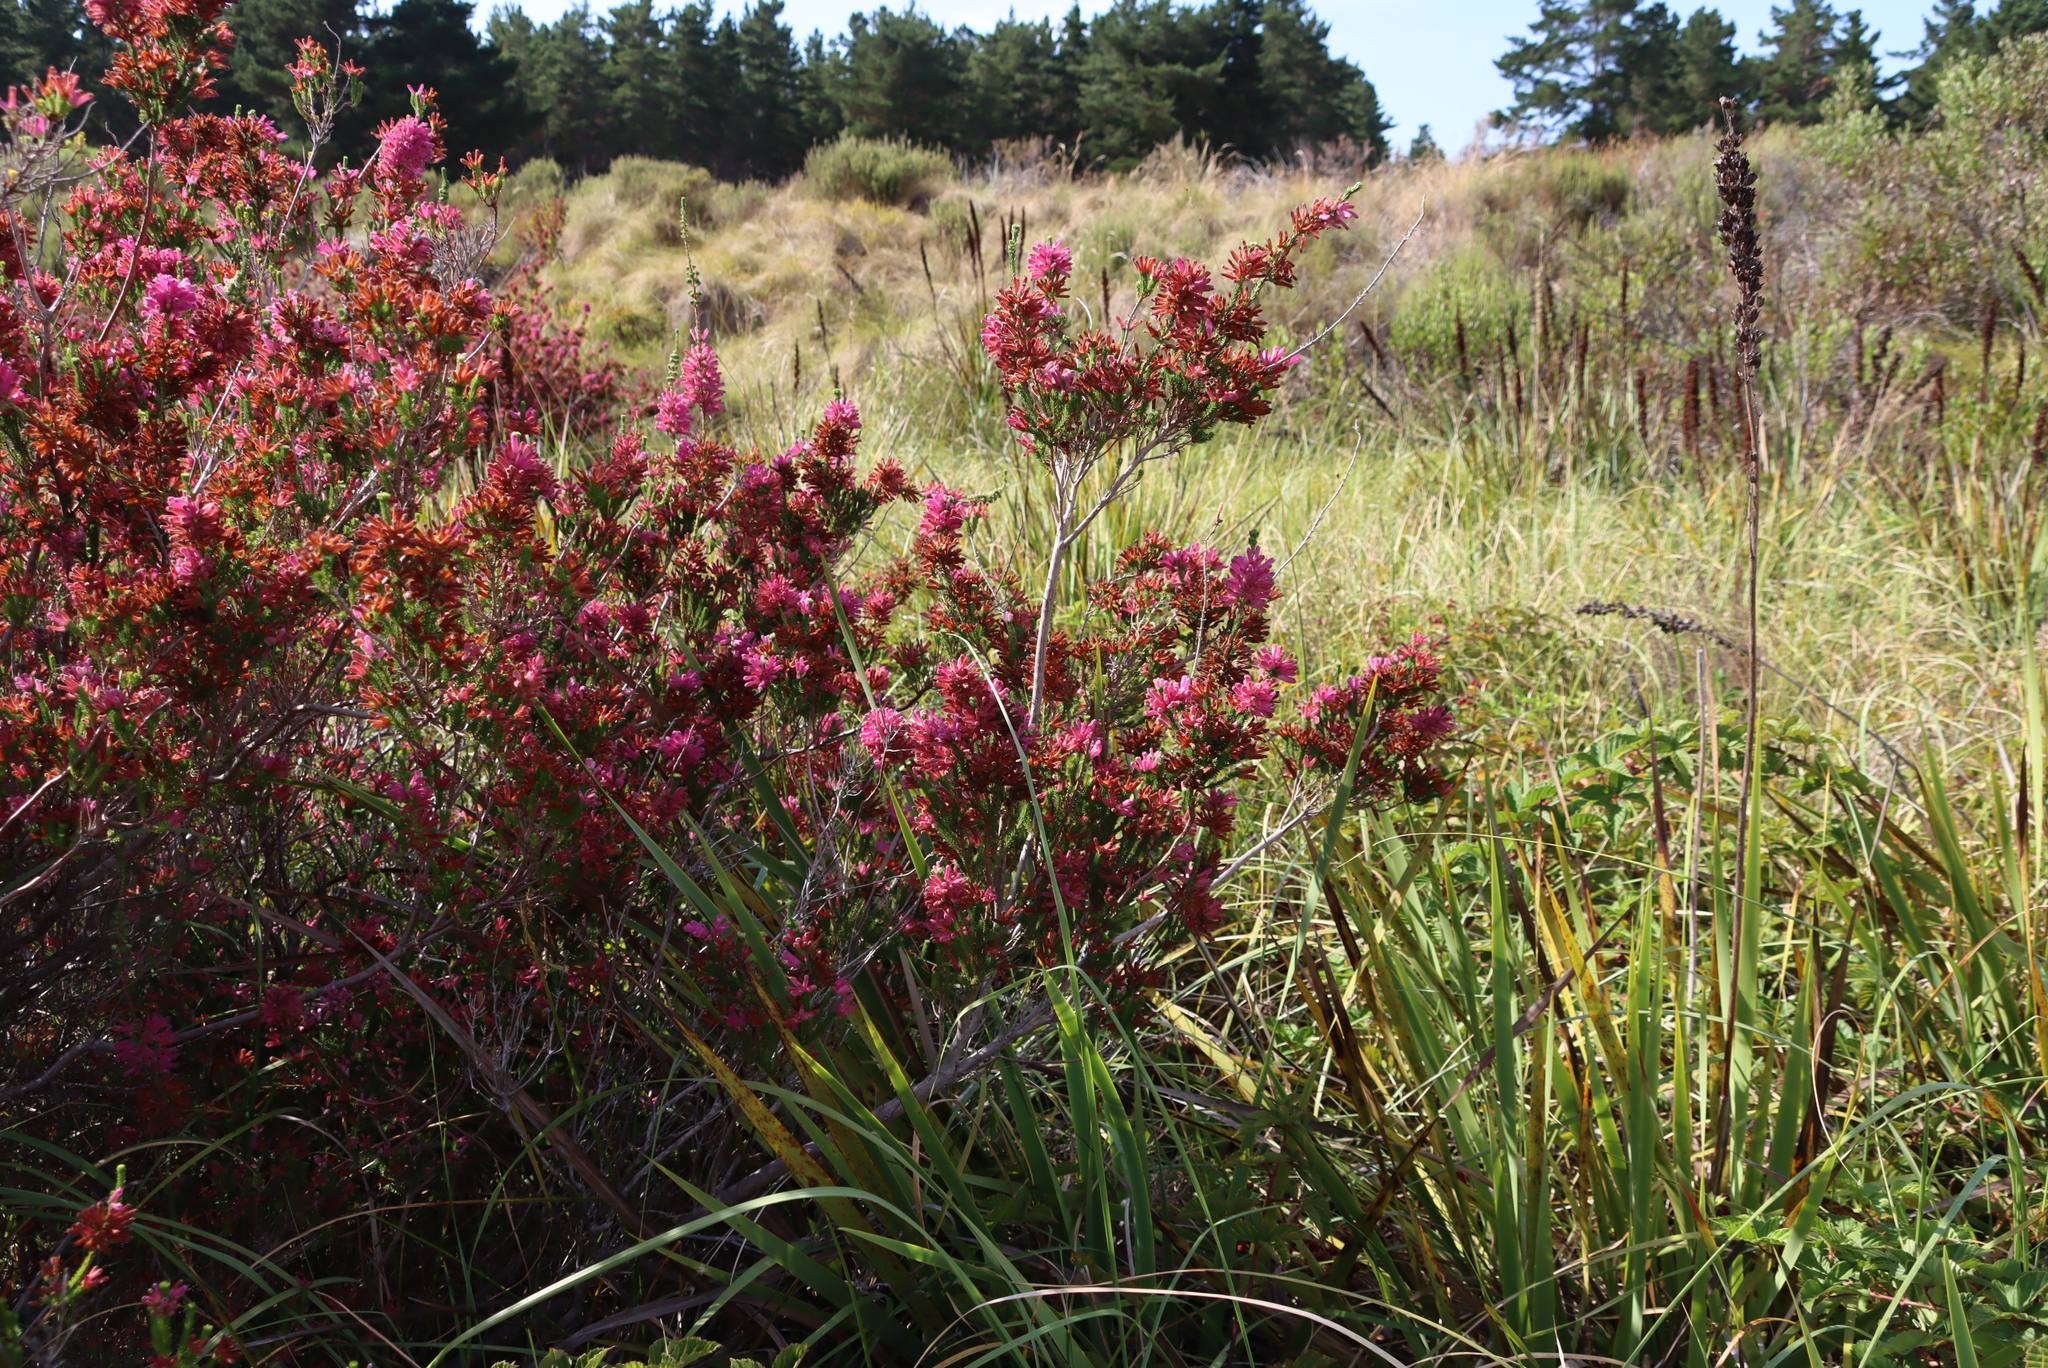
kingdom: Plantae
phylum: Tracheophyta
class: Magnoliopsida
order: Ericales
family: Ericaceae
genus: Erica
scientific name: Erica verticillata
